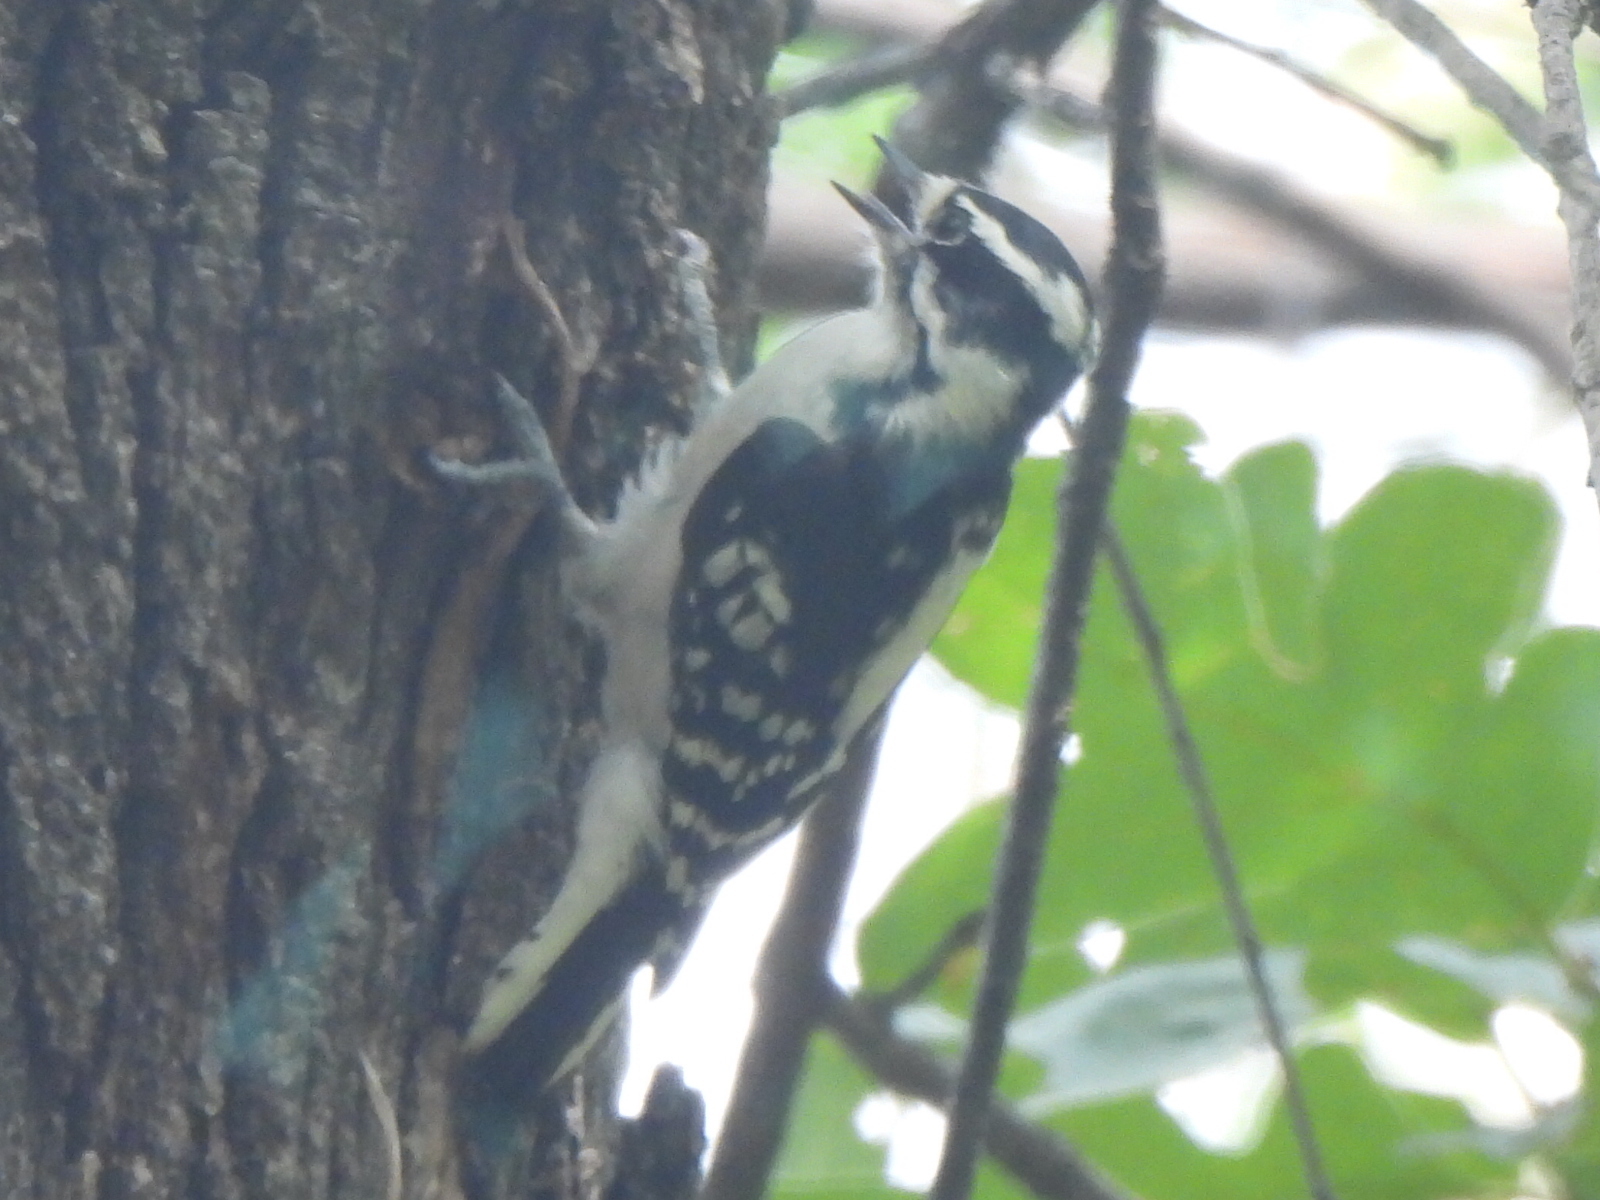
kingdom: Animalia
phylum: Chordata
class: Aves
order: Piciformes
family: Picidae
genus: Dryobates
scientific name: Dryobates pubescens
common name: Downy woodpecker
